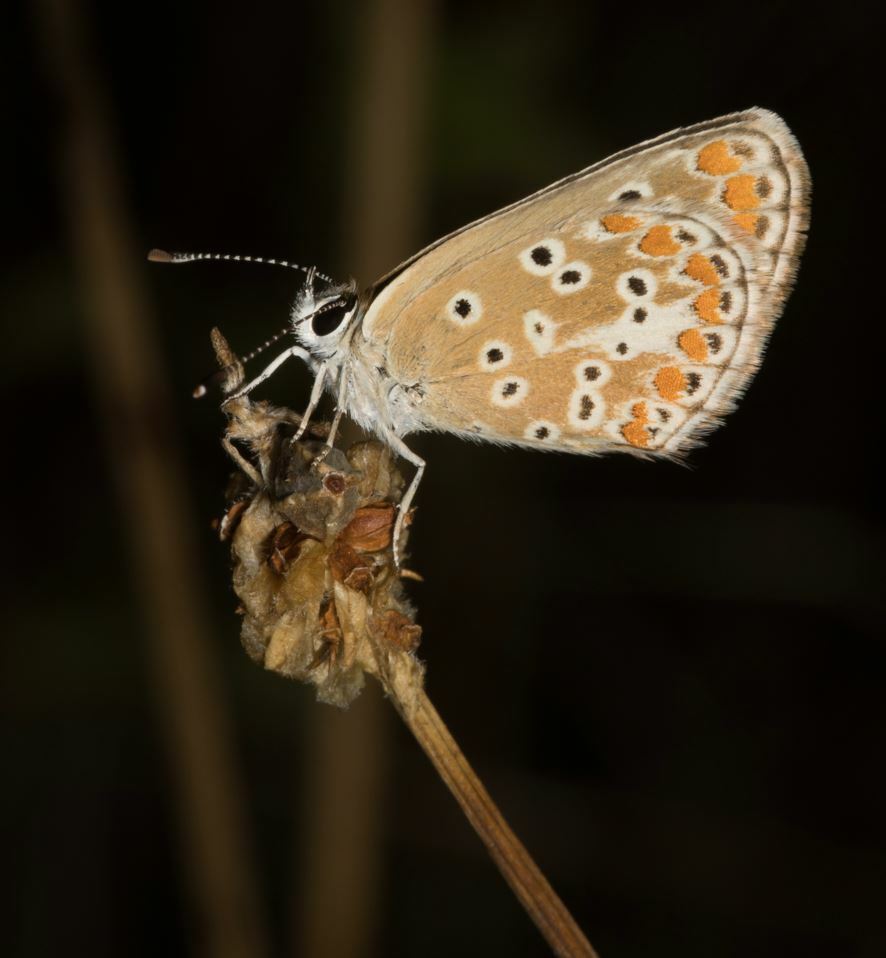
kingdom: Animalia
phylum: Arthropoda
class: Insecta
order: Lepidoptera
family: Lycaenidae
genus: Aricia
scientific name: Aricia agestis
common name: Brown argus
